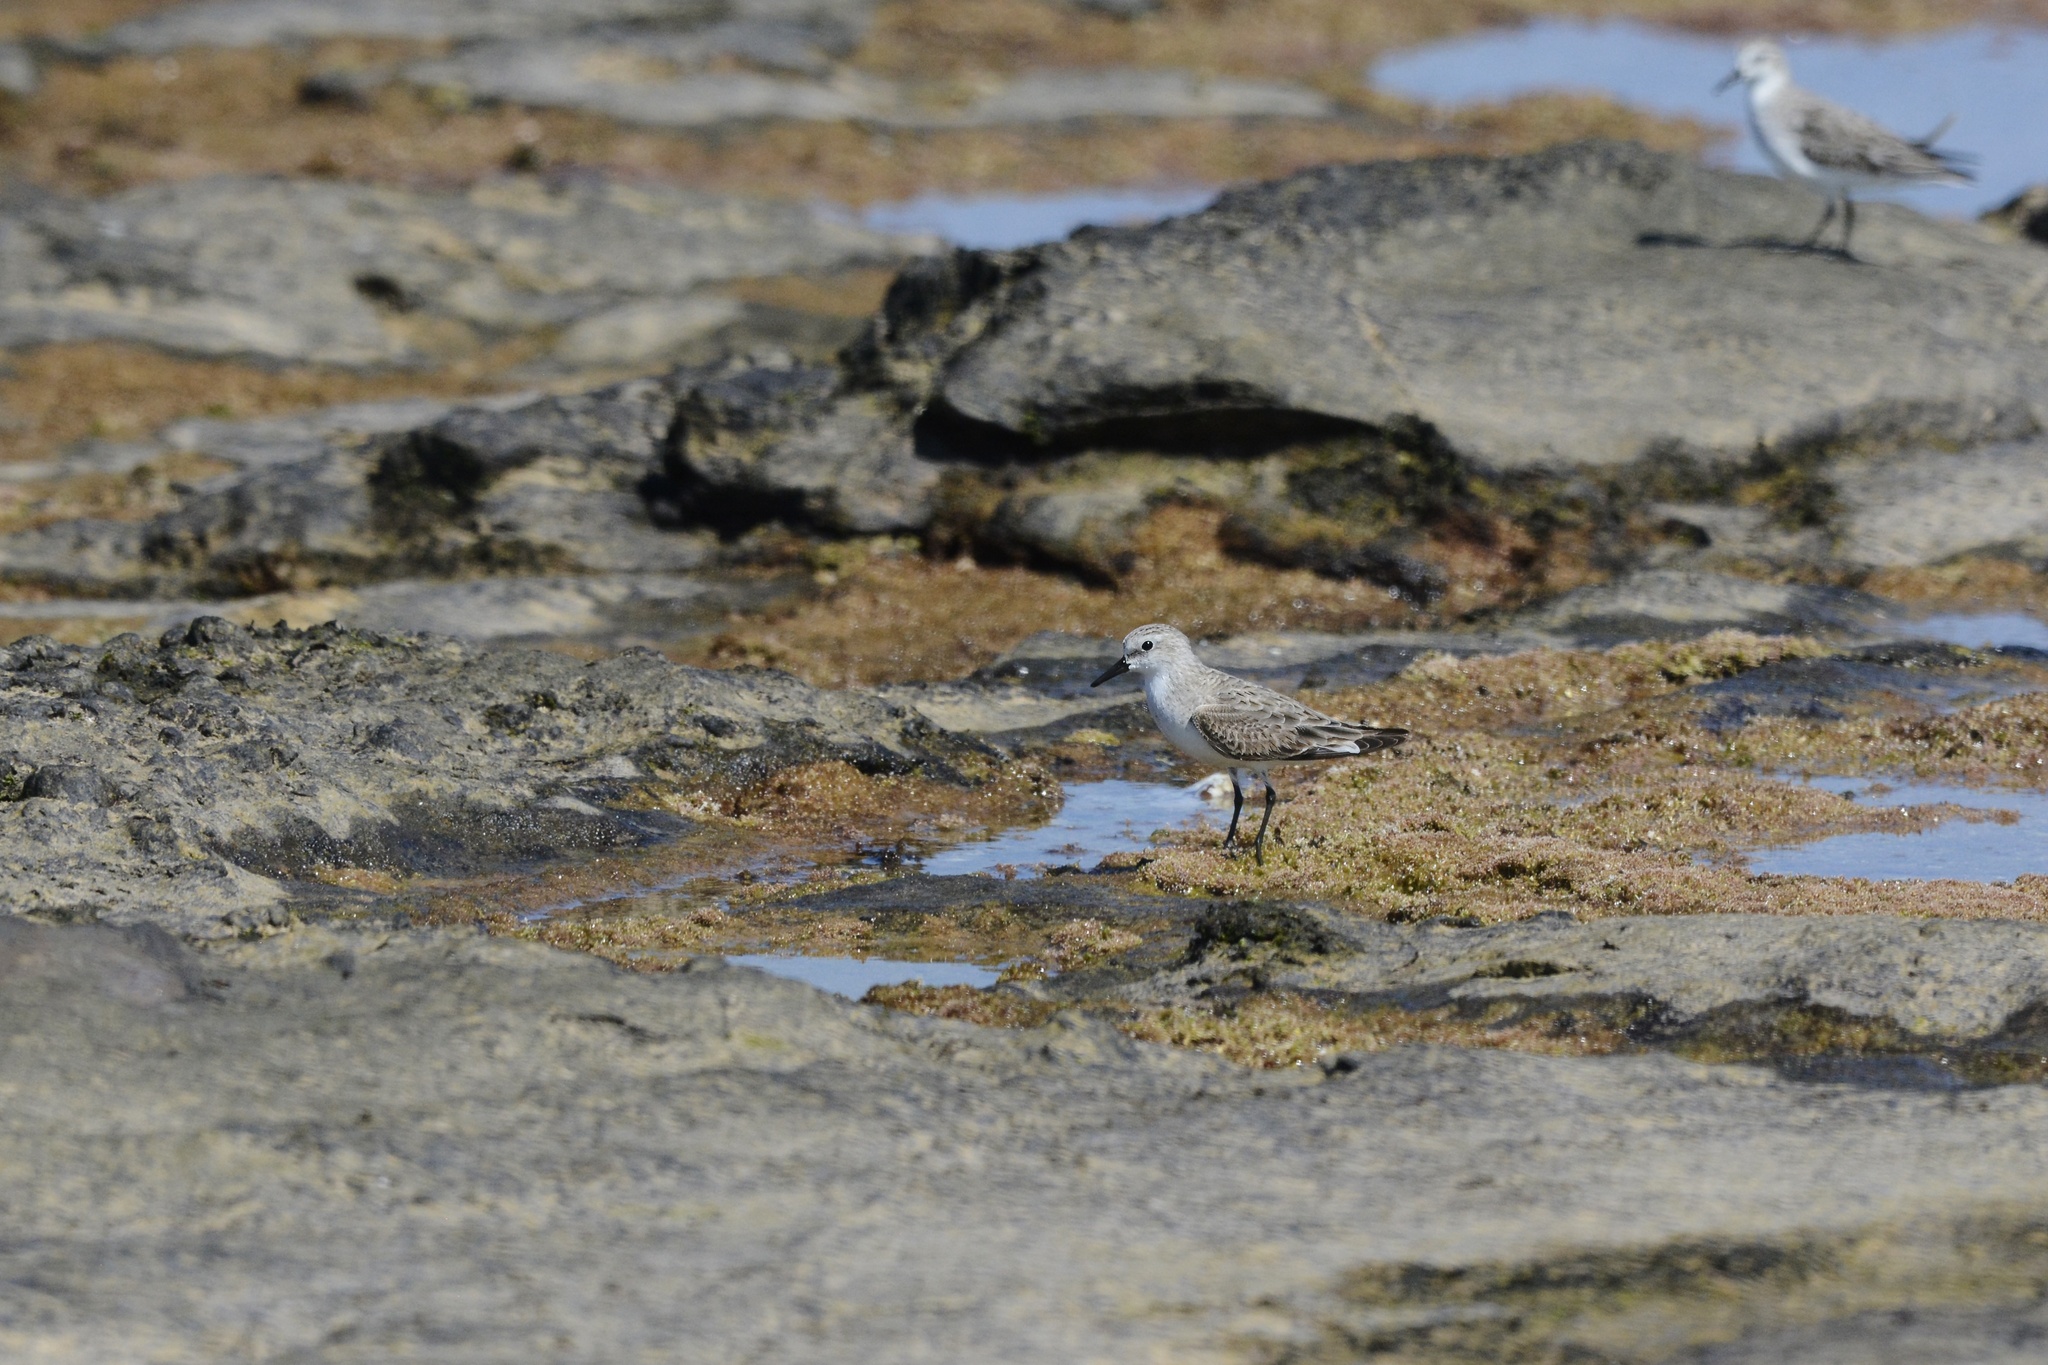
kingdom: Animalia
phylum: Chordata
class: Aves
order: Charadriiformes
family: Scolopacidae
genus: Calidris
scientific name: Calidris ruficollis
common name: Red-necked stint
